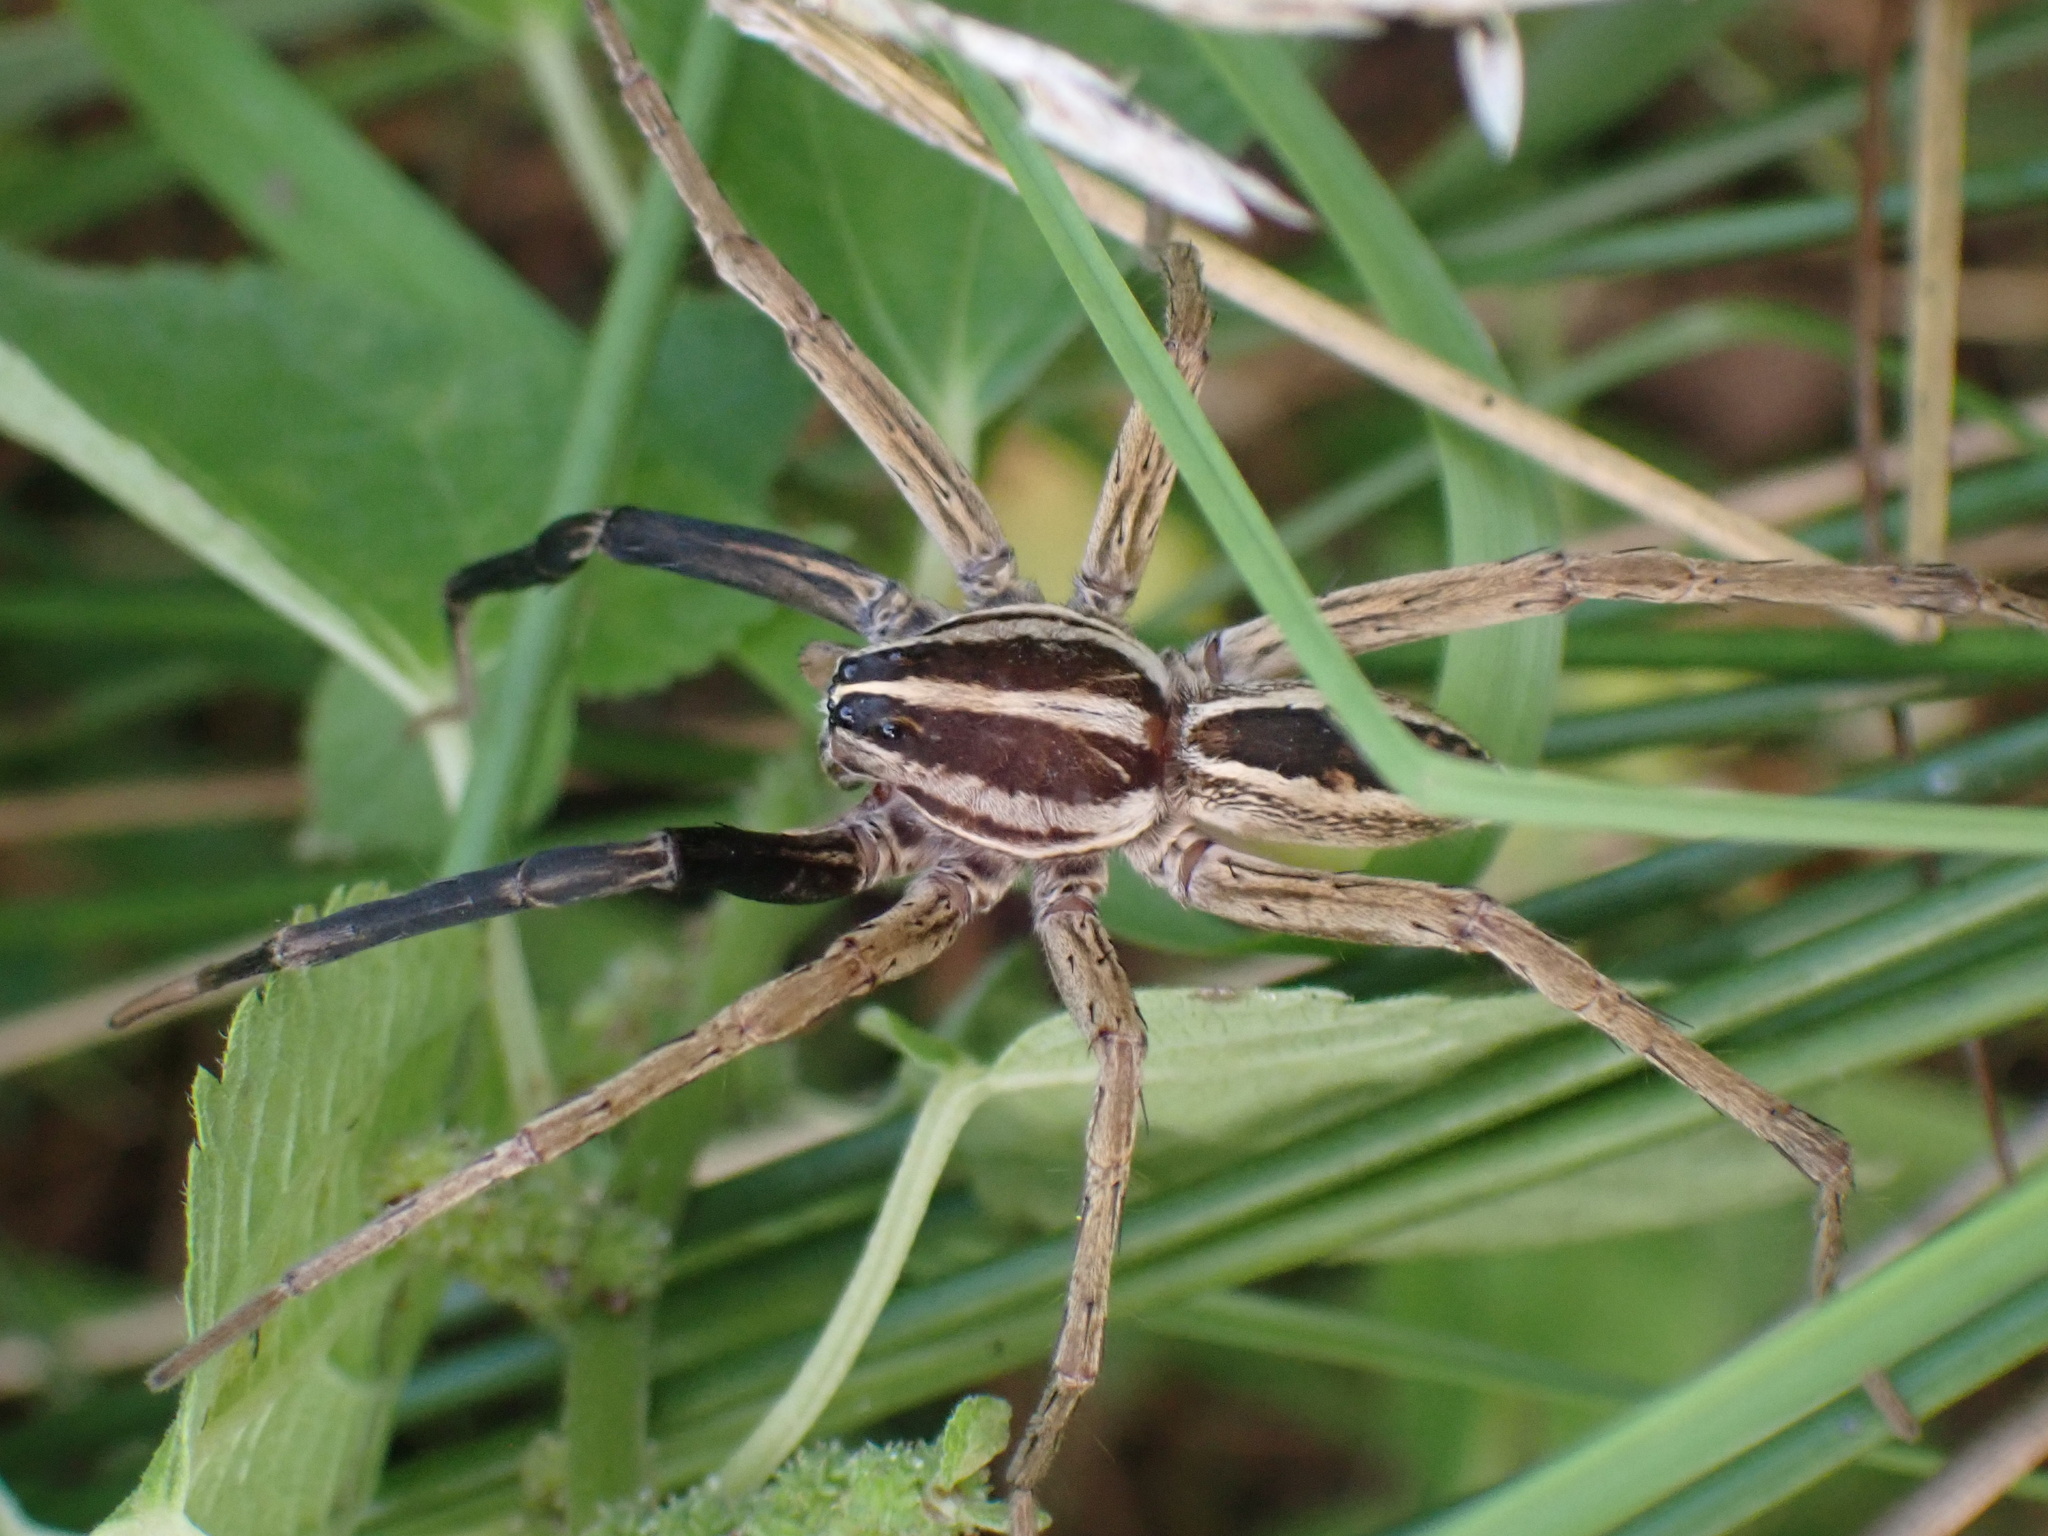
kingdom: Animalia
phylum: Arthropoda
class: Arachnida
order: Araneae
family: Lycosidae
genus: Rabidosa
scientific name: Rabidosa rabida
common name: Rabid wolf spider
